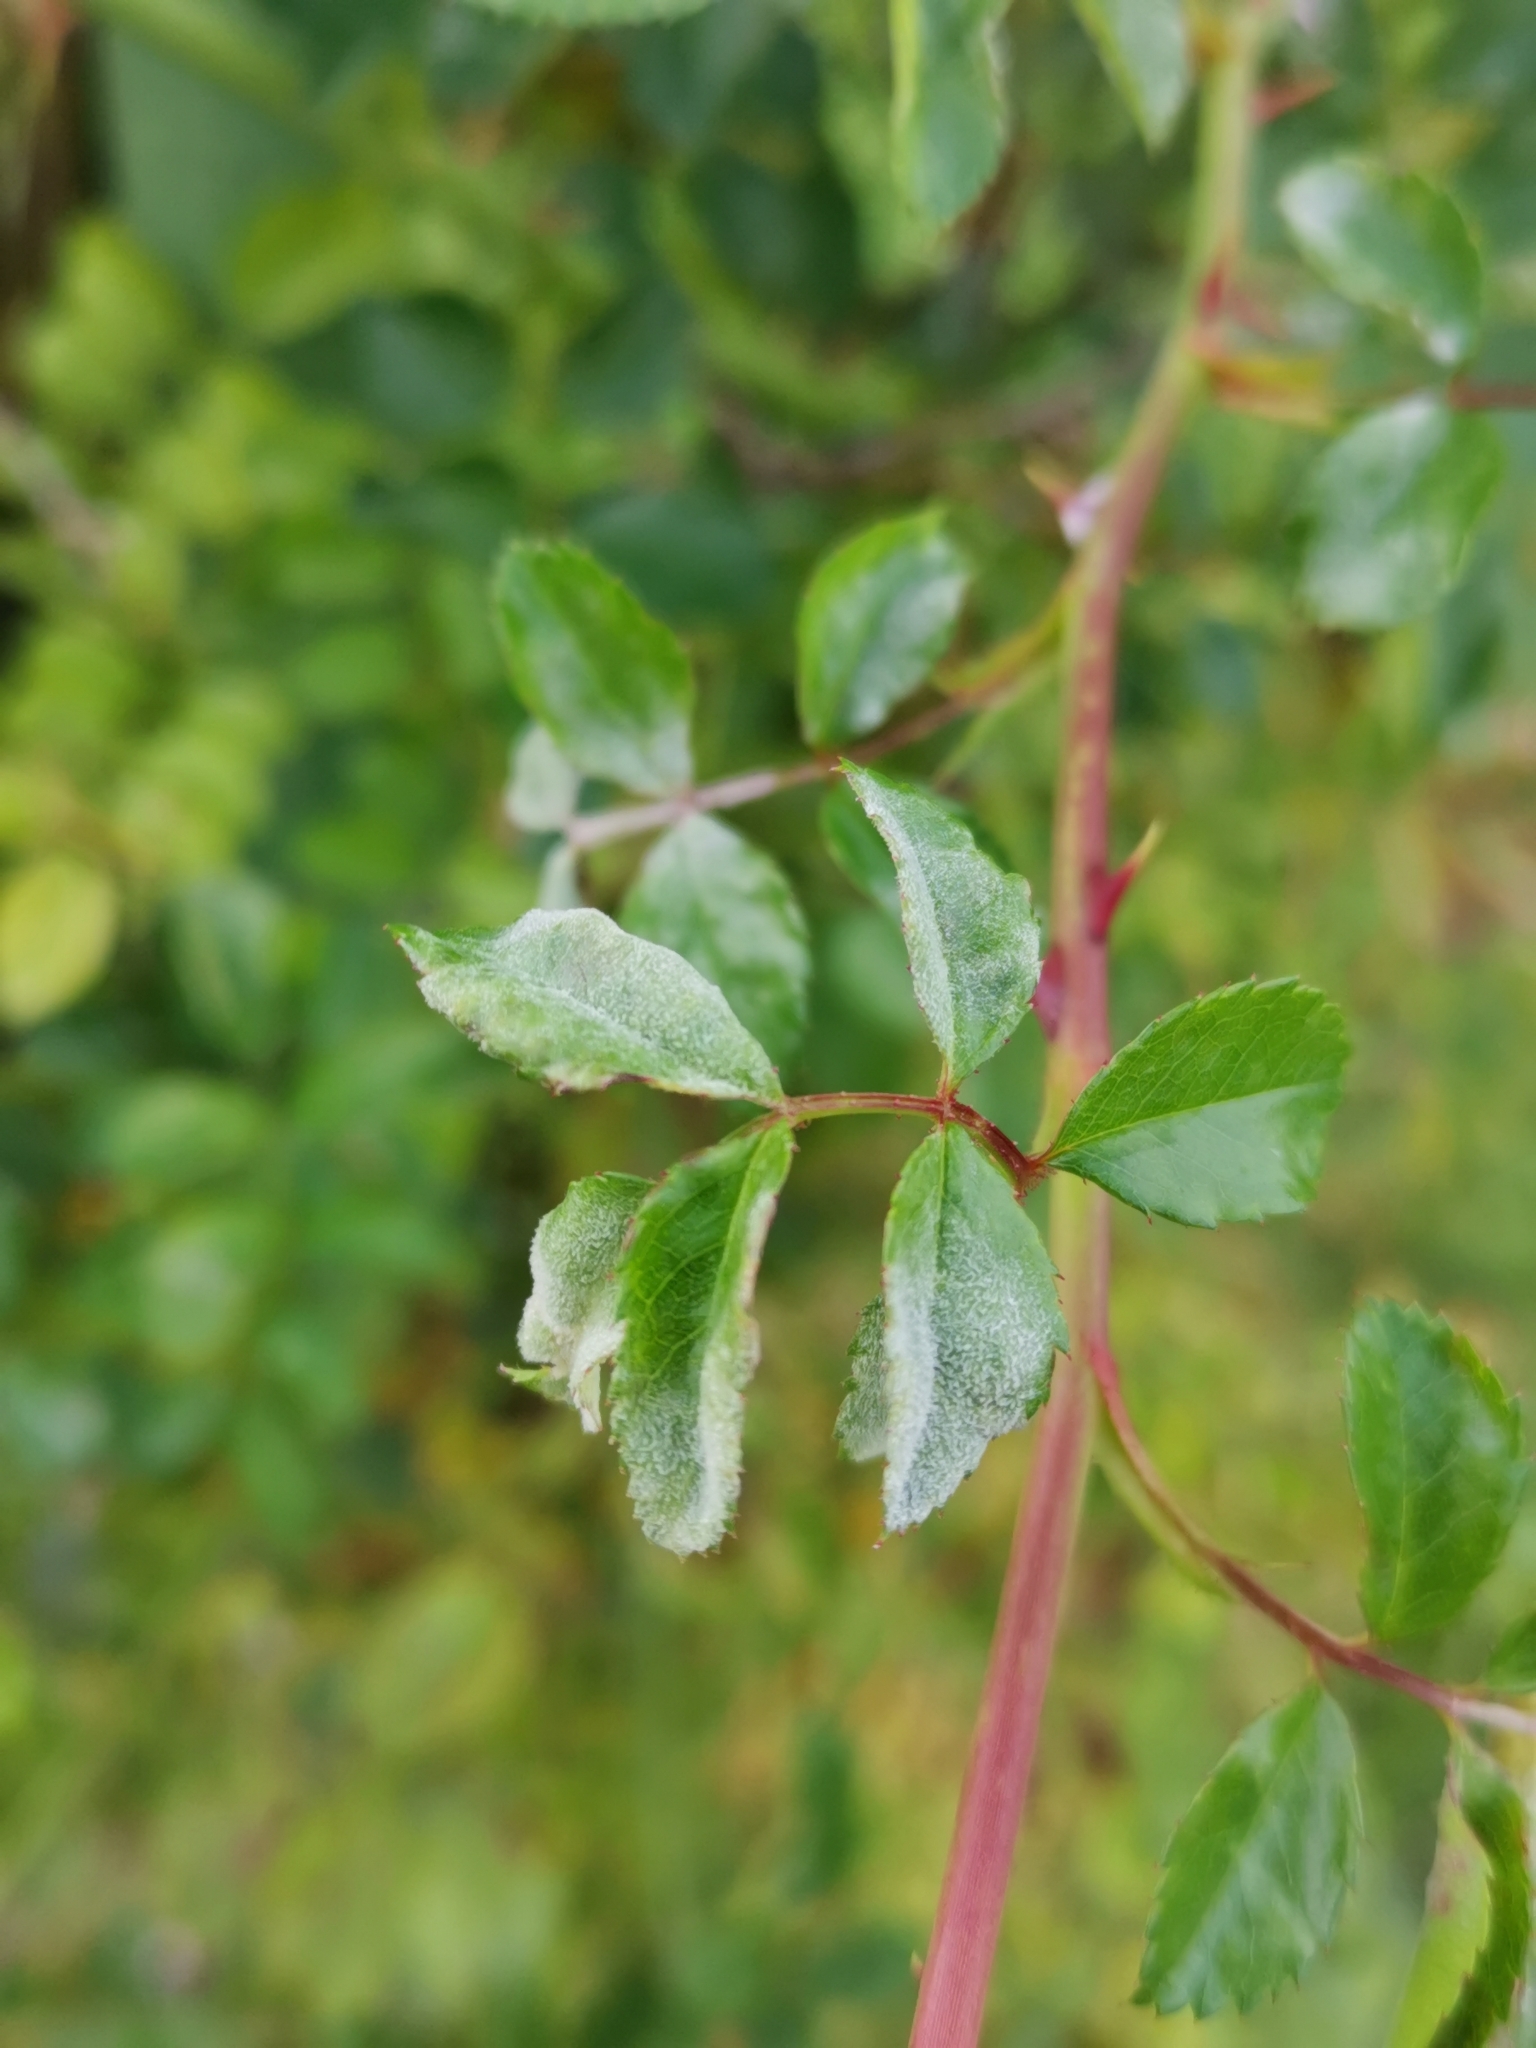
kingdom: Fungi
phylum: Ascomycota
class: Leotiomycetes
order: Helotiales
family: Erysiphaceae
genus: Podosphaera
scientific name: Podosphaera pannosa
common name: Rose mildew
